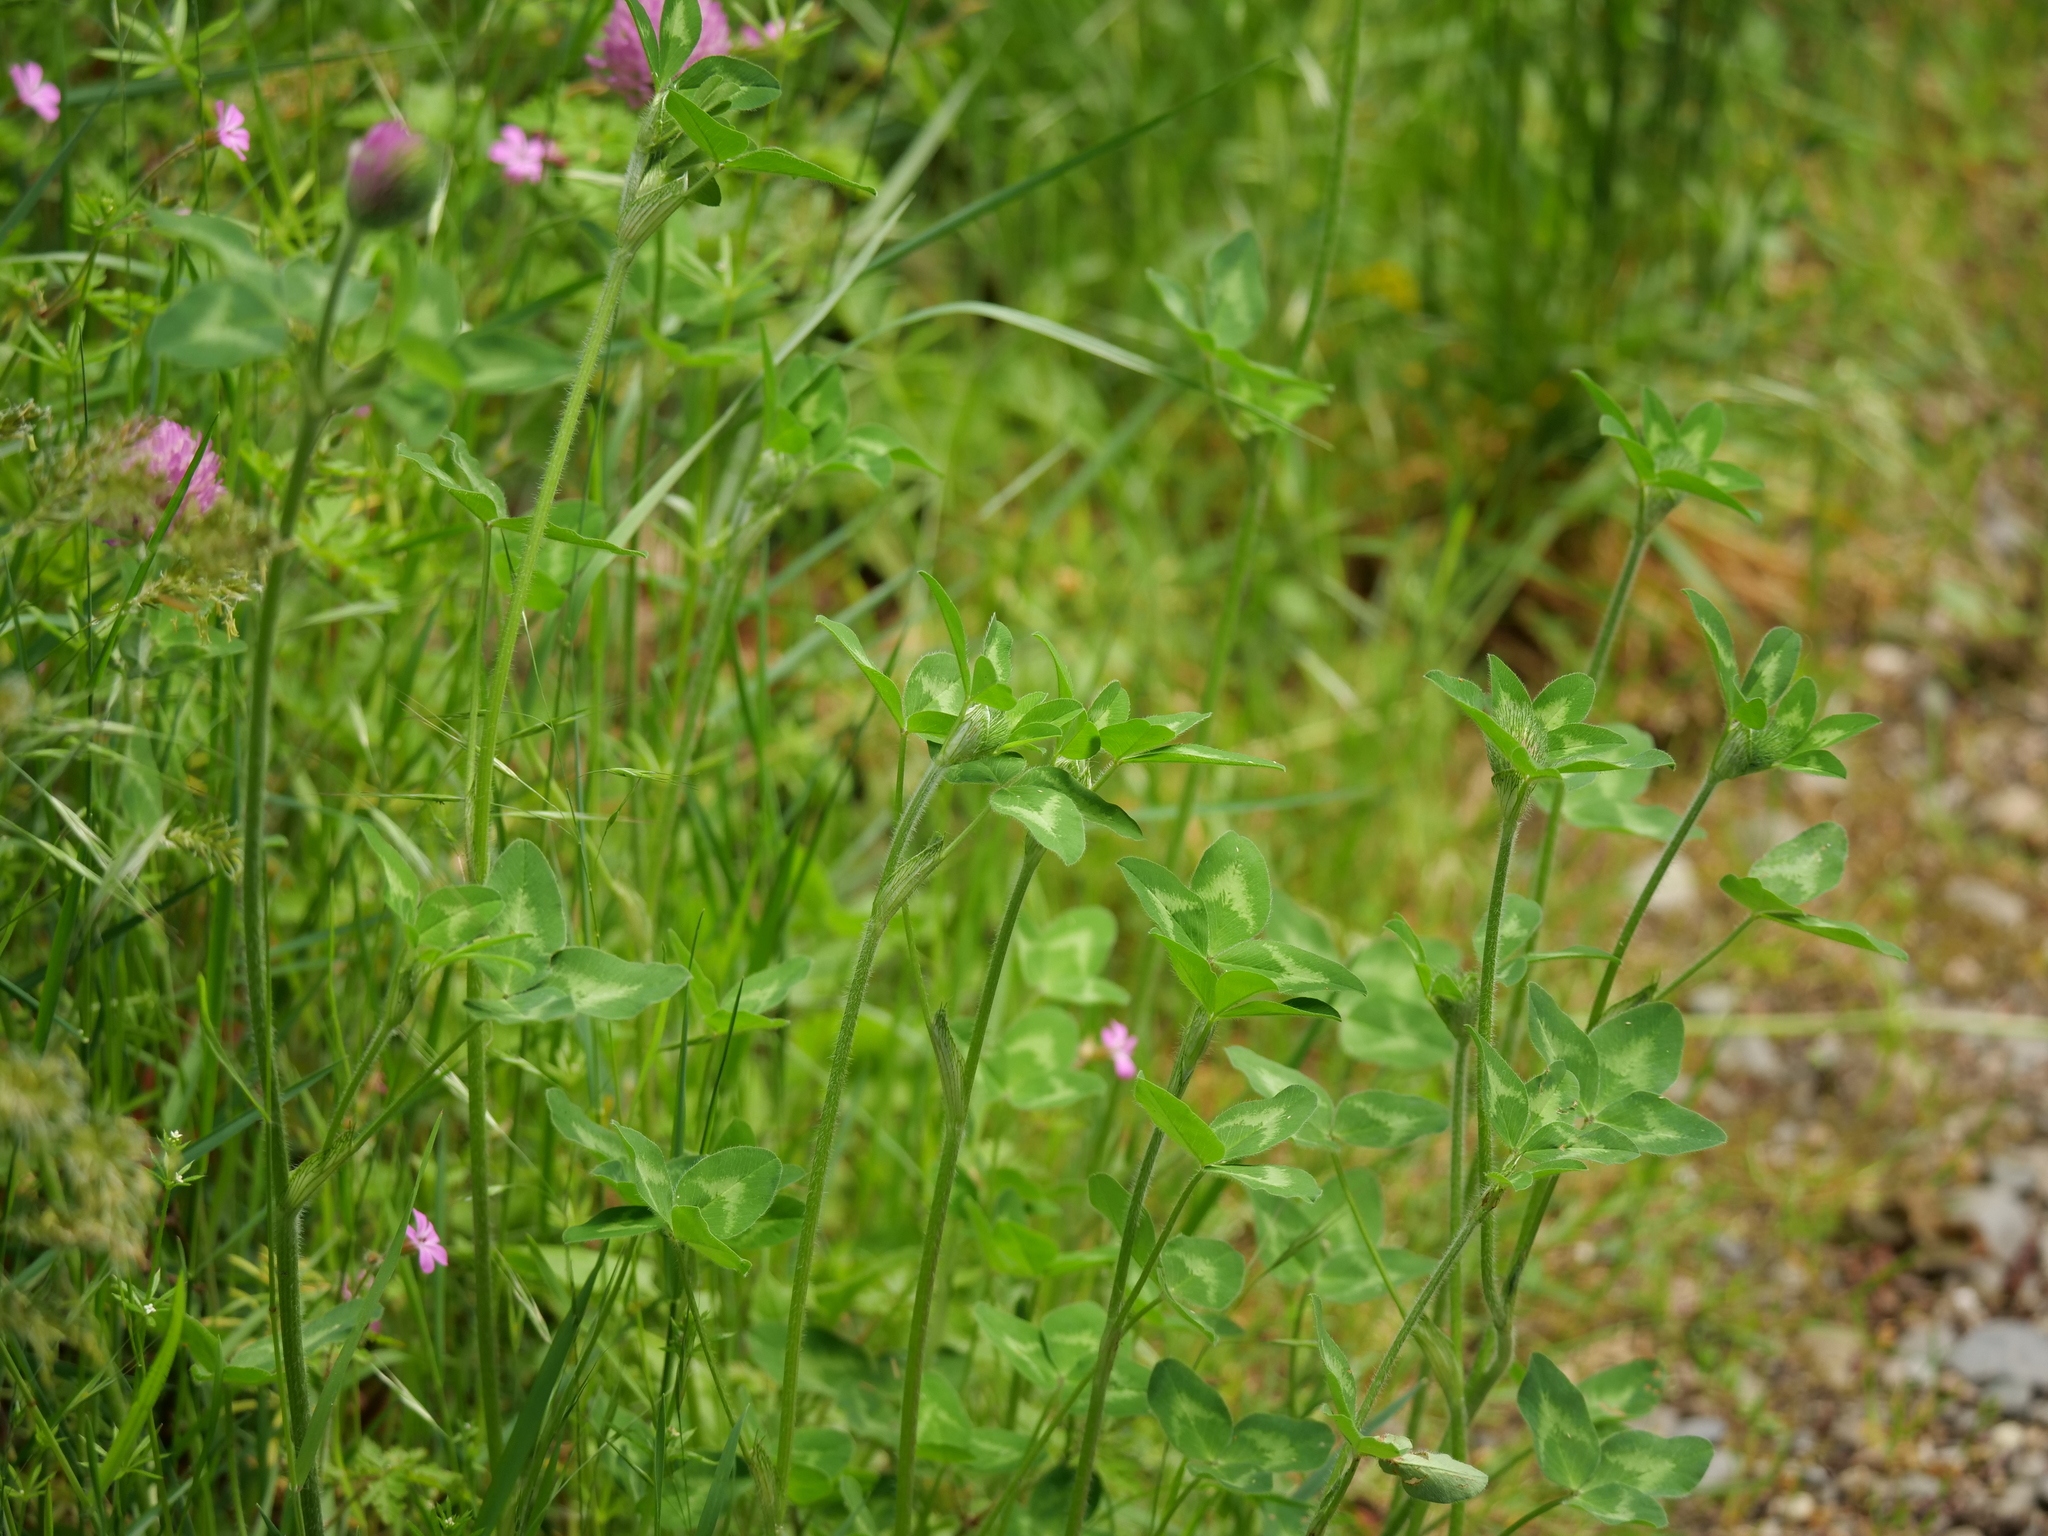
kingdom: Plantae
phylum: Tracheophyta
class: Magnoliopsida
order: Fabales
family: Fabaceae
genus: Trifolium
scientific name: Trifolium pratense
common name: Red clover
